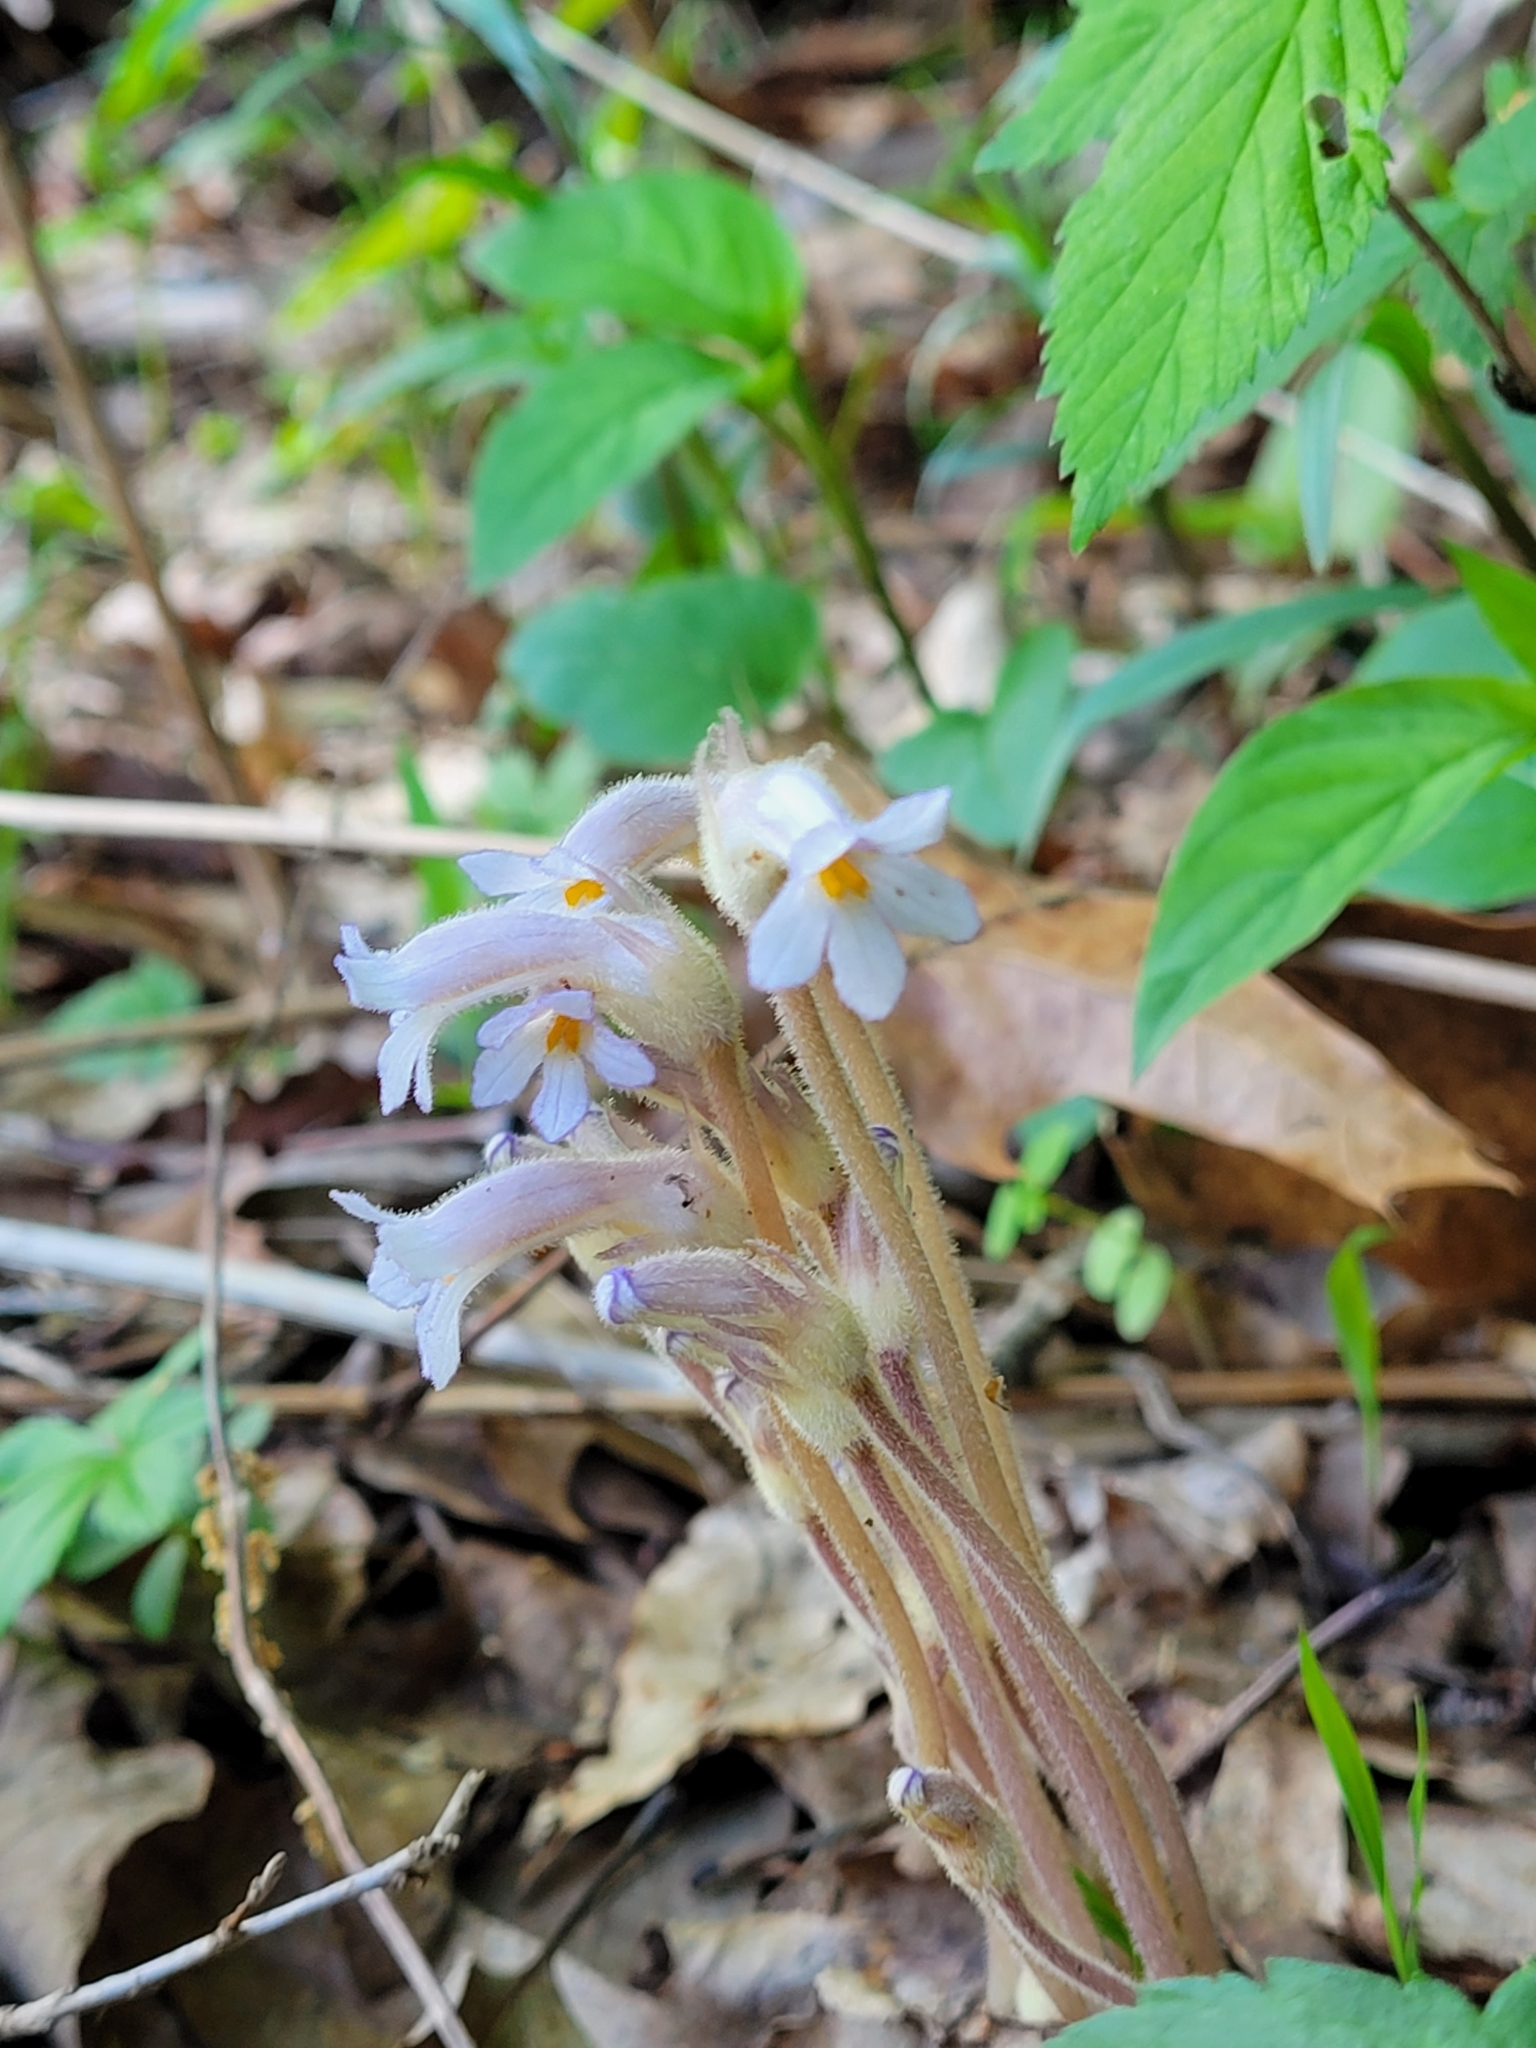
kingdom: Plantae
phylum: Tracheophyta
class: Magnoliopsida
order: Lamiales
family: Orobanchaceae
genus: Aphyllon
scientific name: Aphyllon uniflorum
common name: One-flowered broomrape
